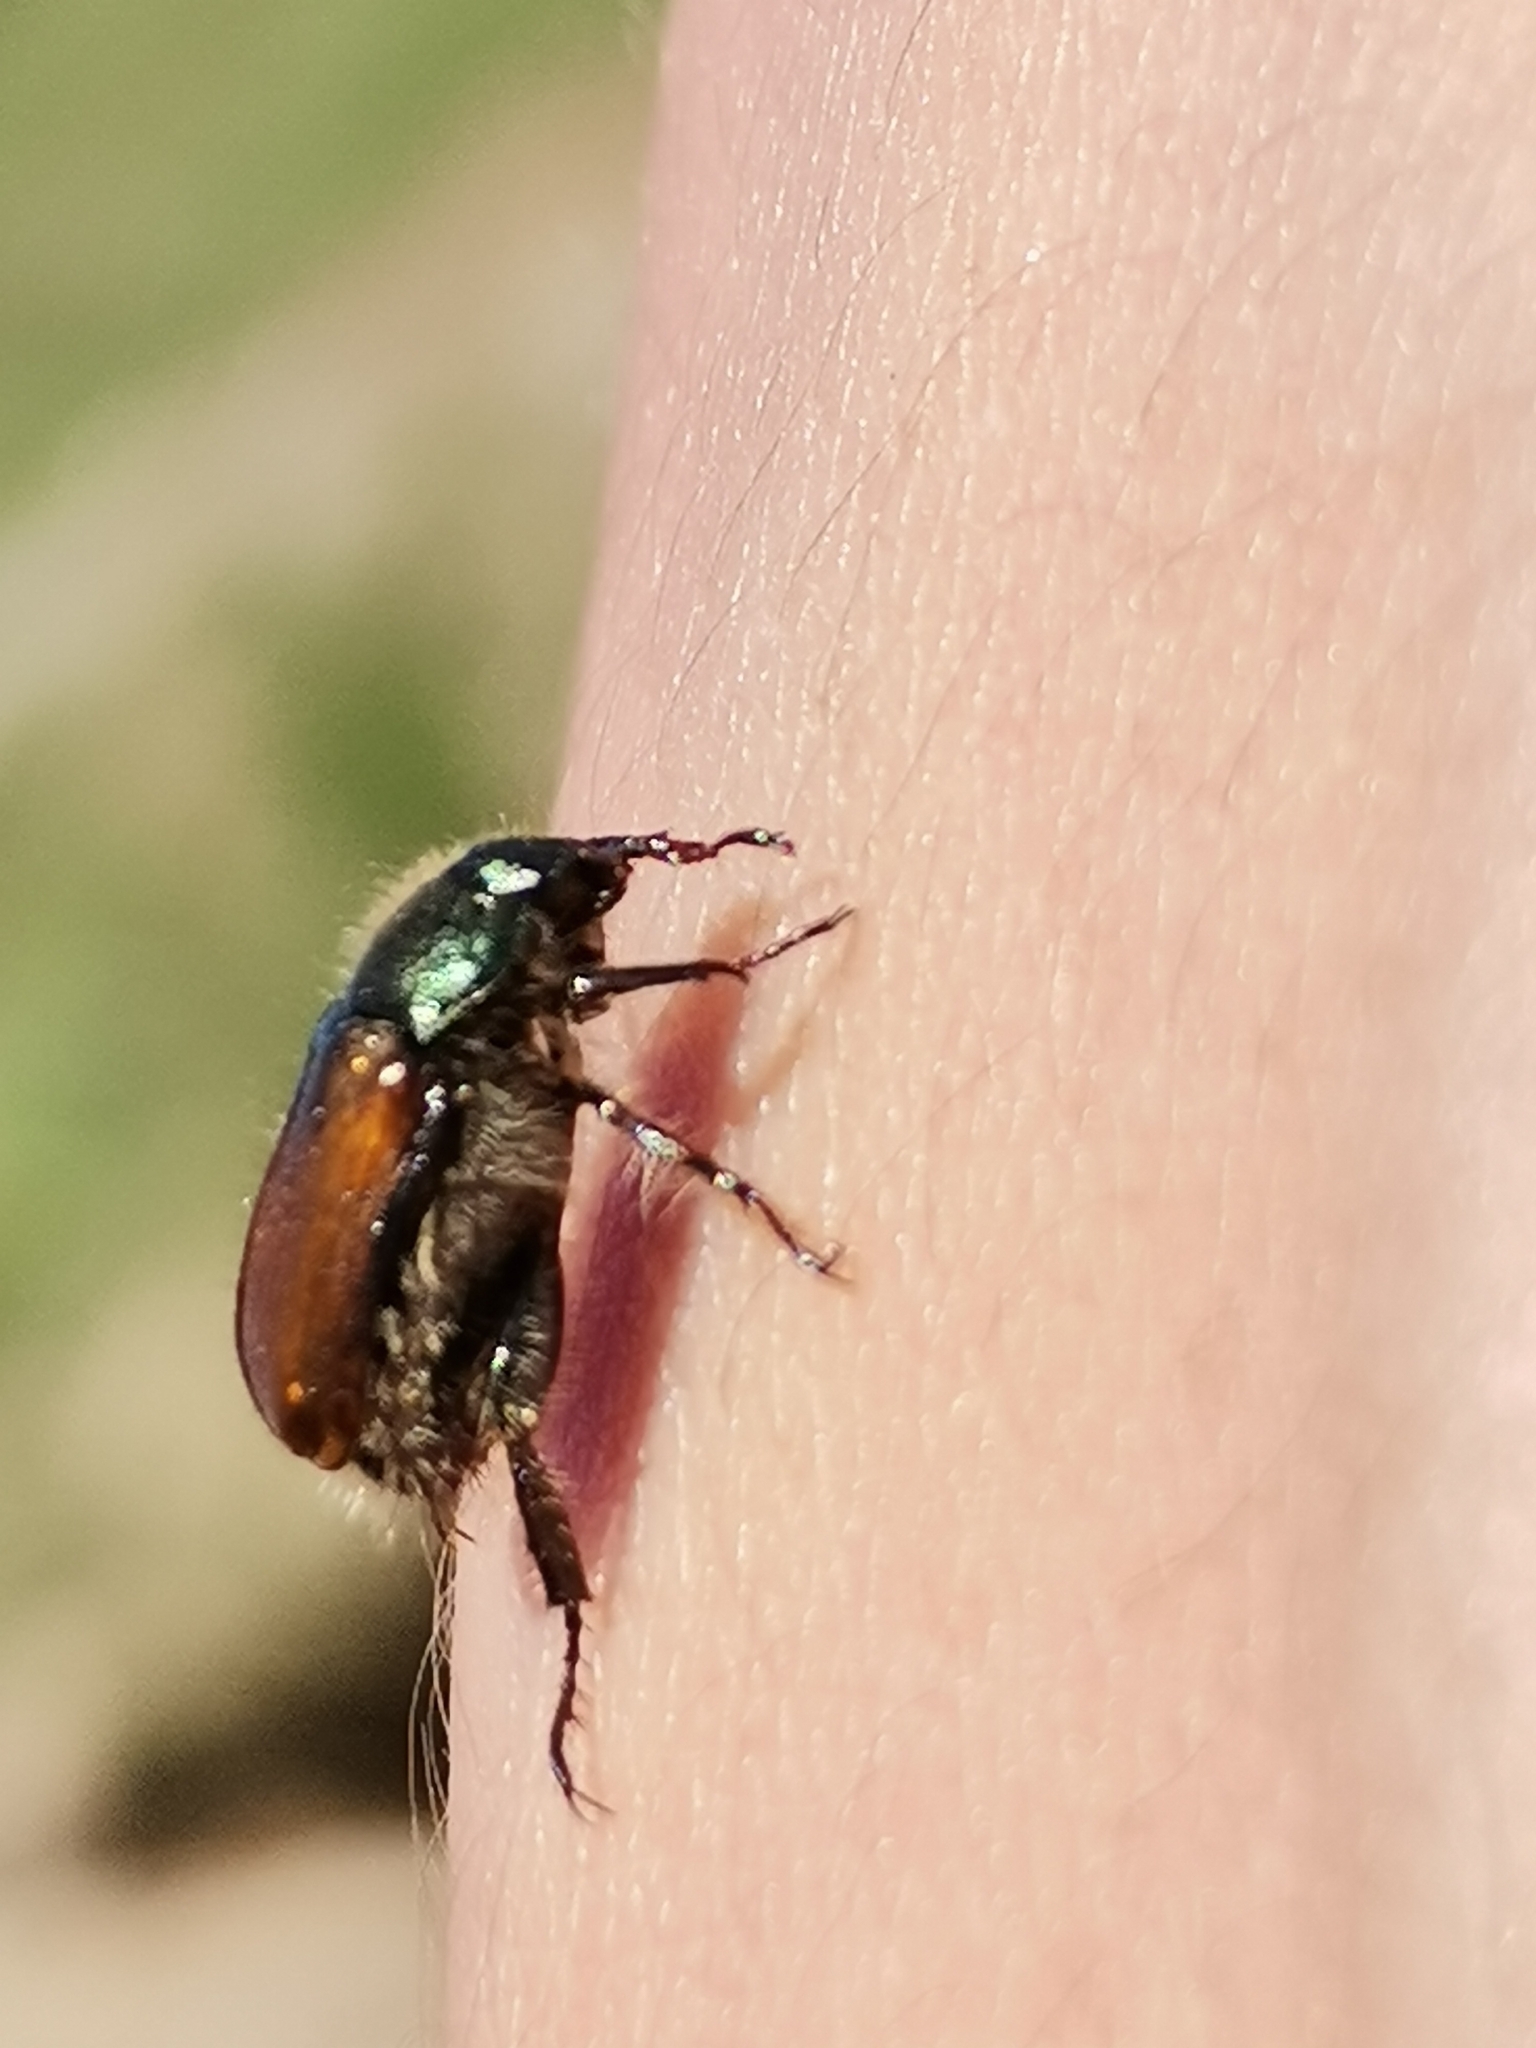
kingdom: Animalia
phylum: Arthropoda
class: Insecta
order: Coleoptera
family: Scarabaeidae
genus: Phyllopertha
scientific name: Phyllopertha horticola
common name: Garden chafer
